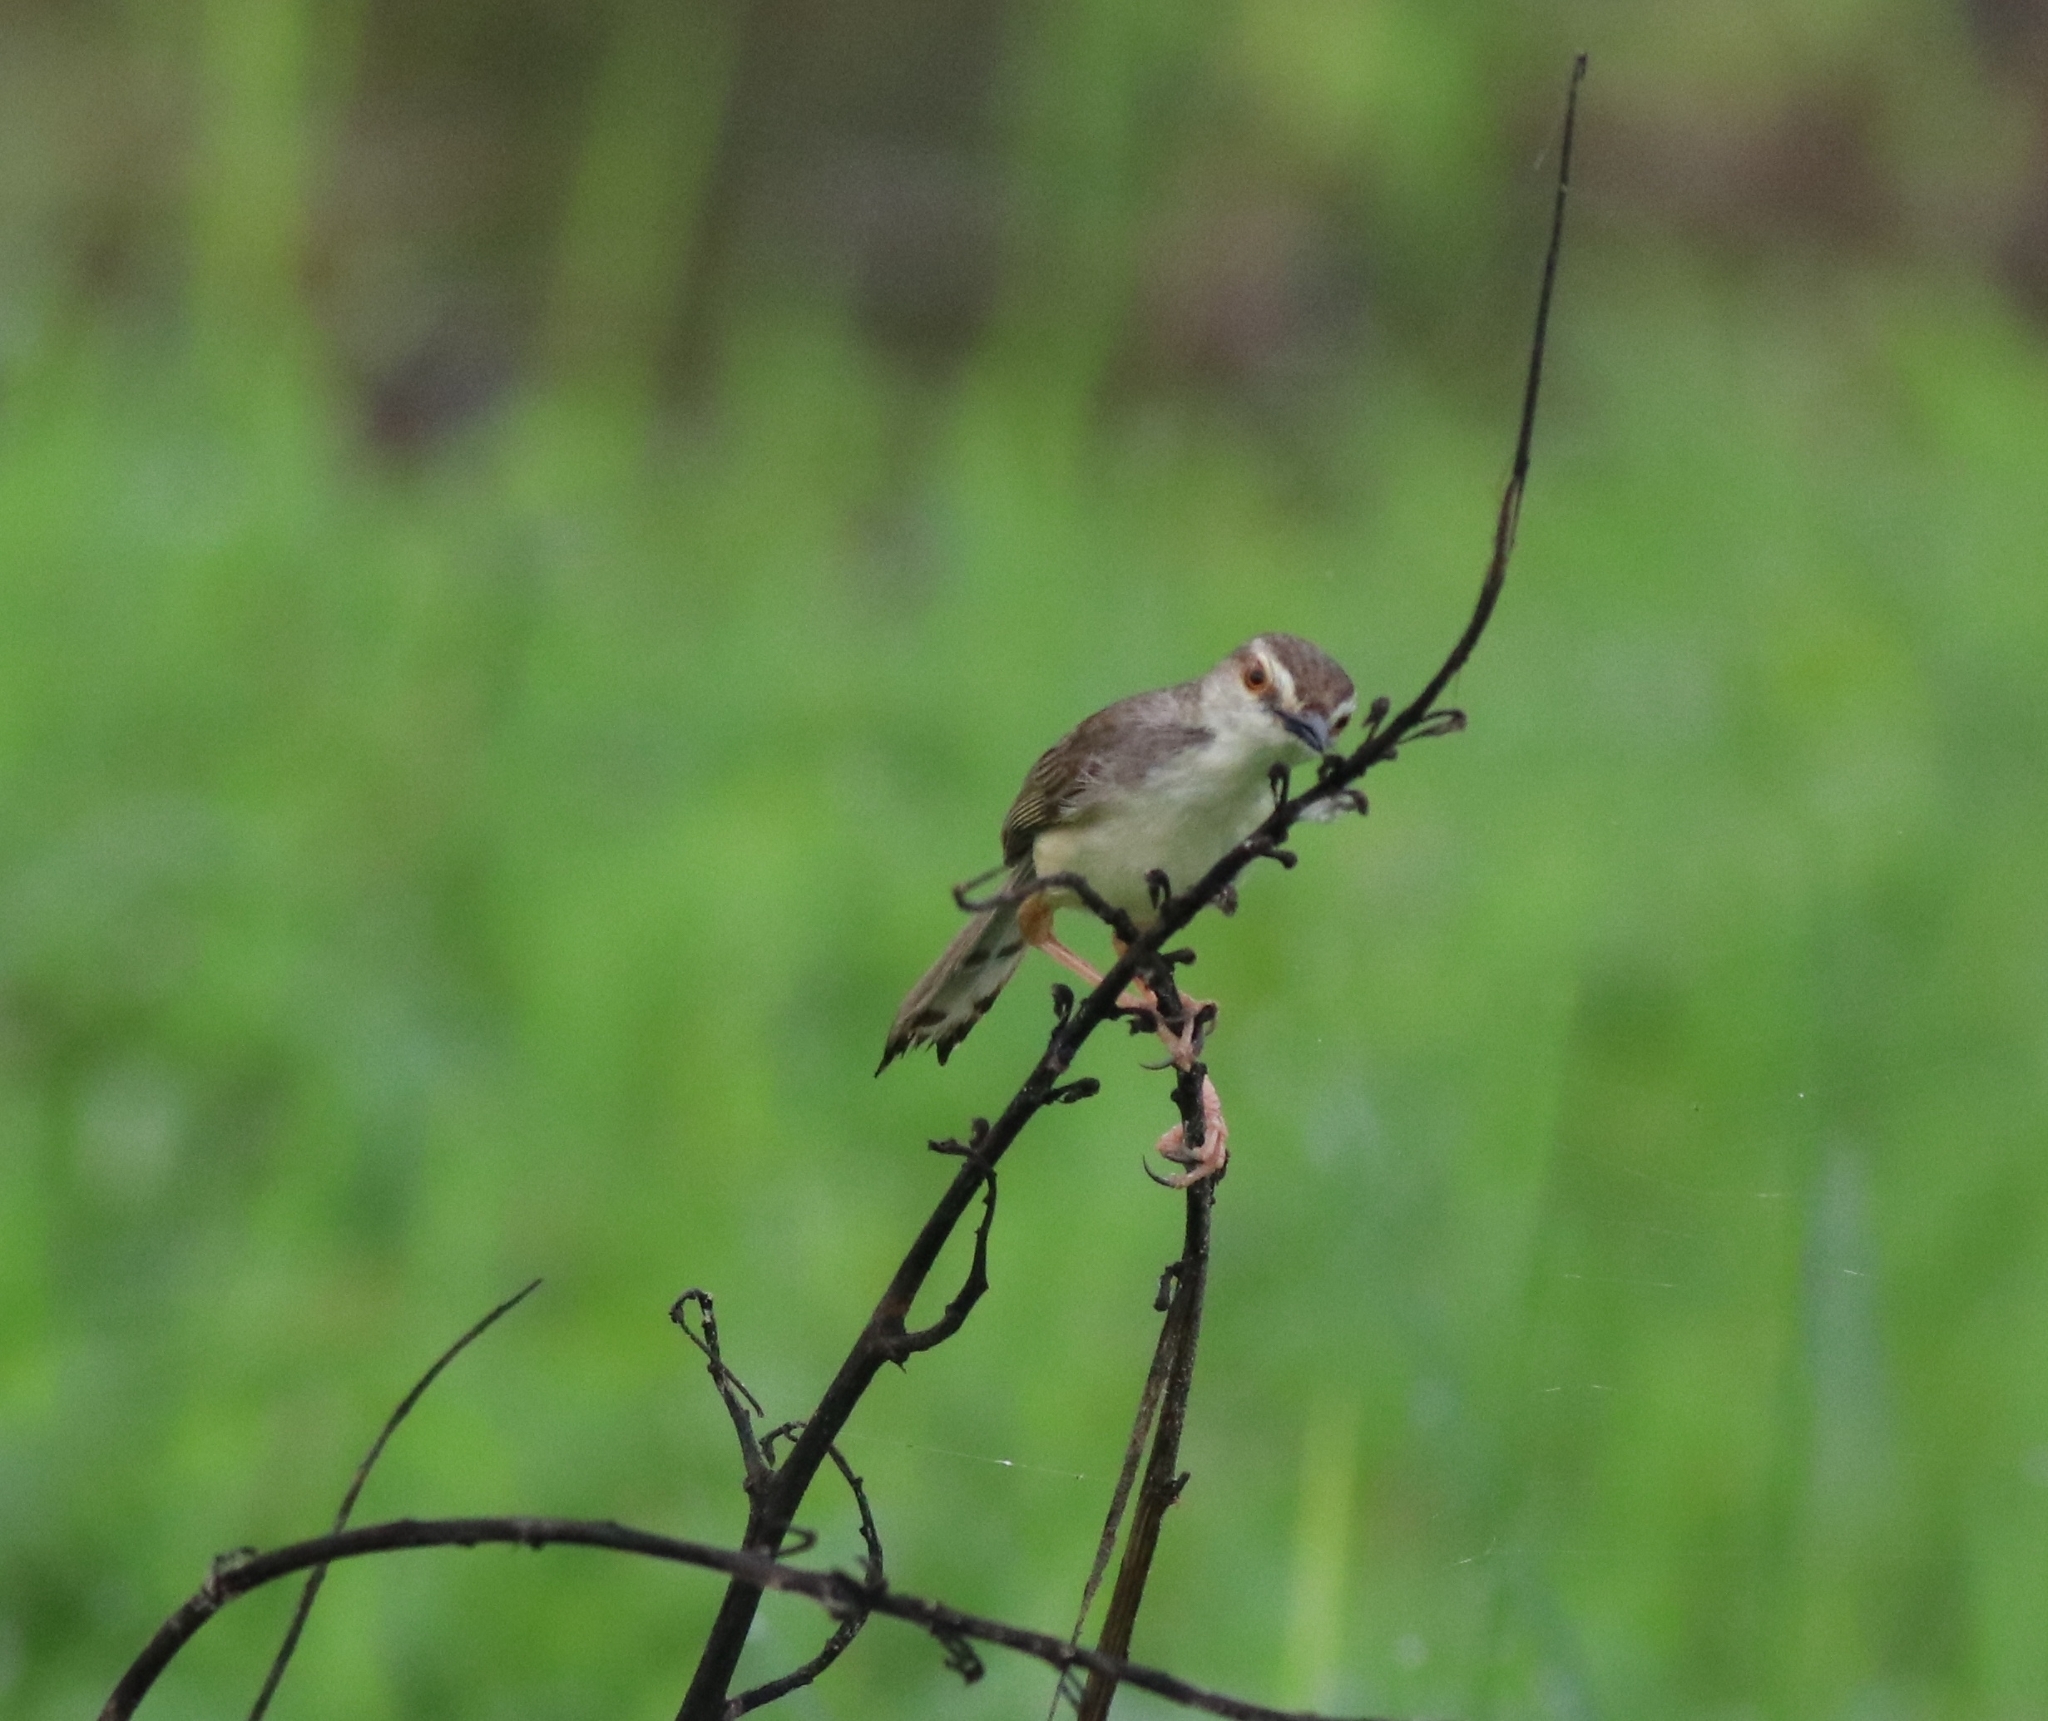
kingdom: Animalia
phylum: Chordata
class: Aves
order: Passeriformes
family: Cisticolidae
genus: Prinia
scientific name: Prinia inornata
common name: Plain prinia
